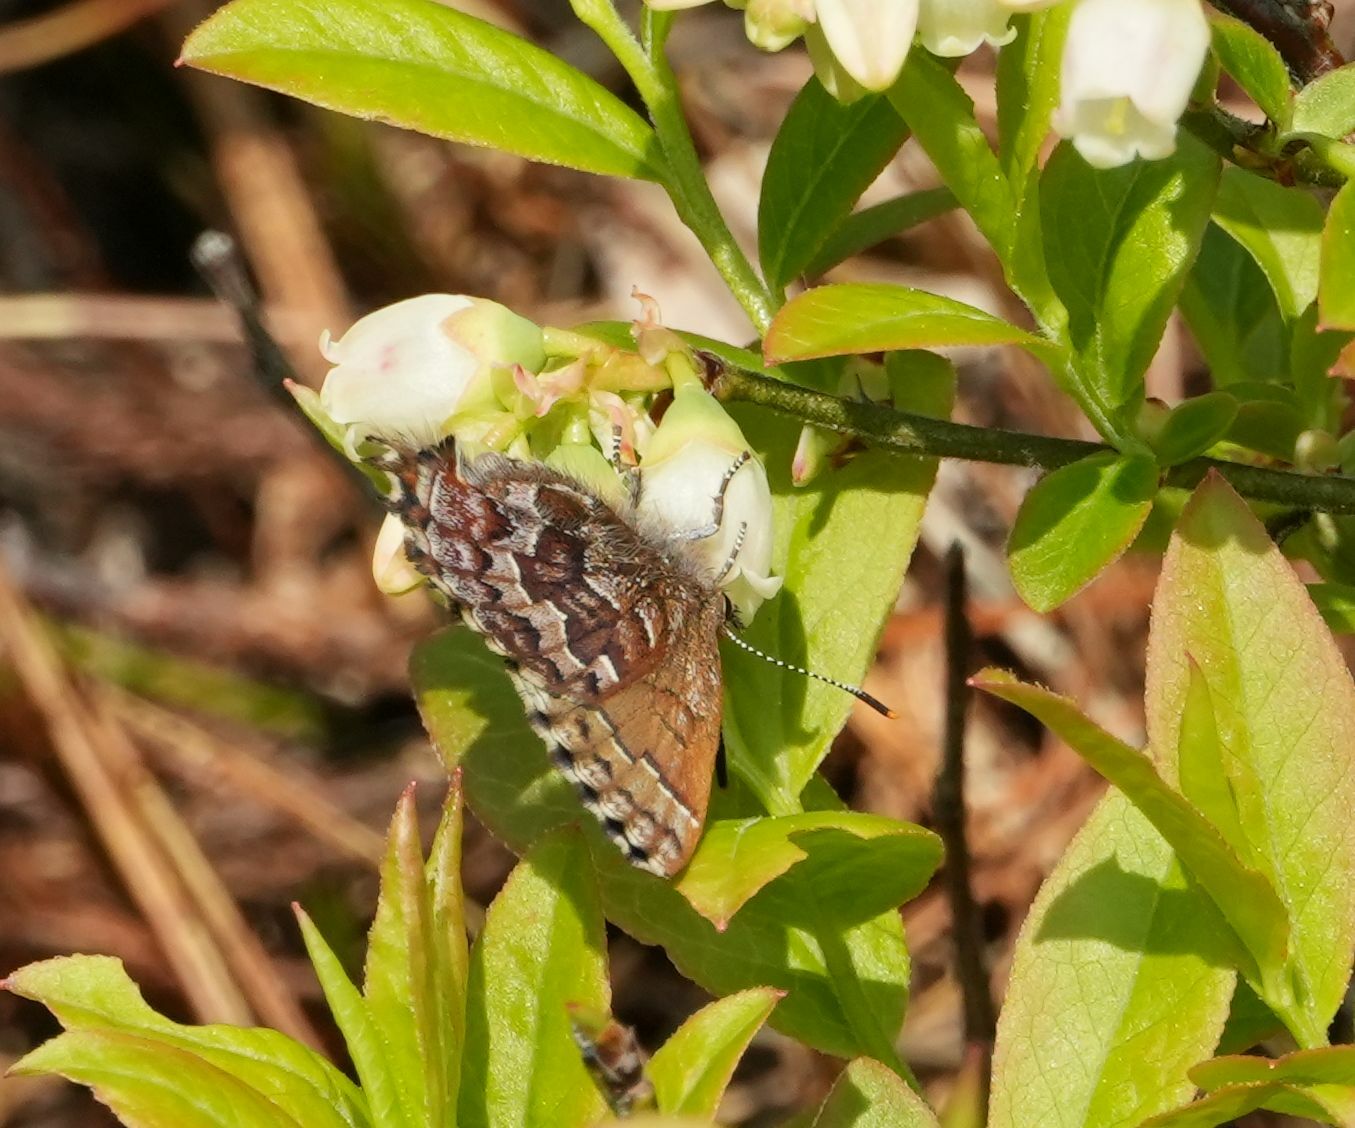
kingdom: Animalia
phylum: Arthropoda
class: Insecta
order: Lepidoptera
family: Lycaenidae
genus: Incisalia
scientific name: Incisalia niphon
